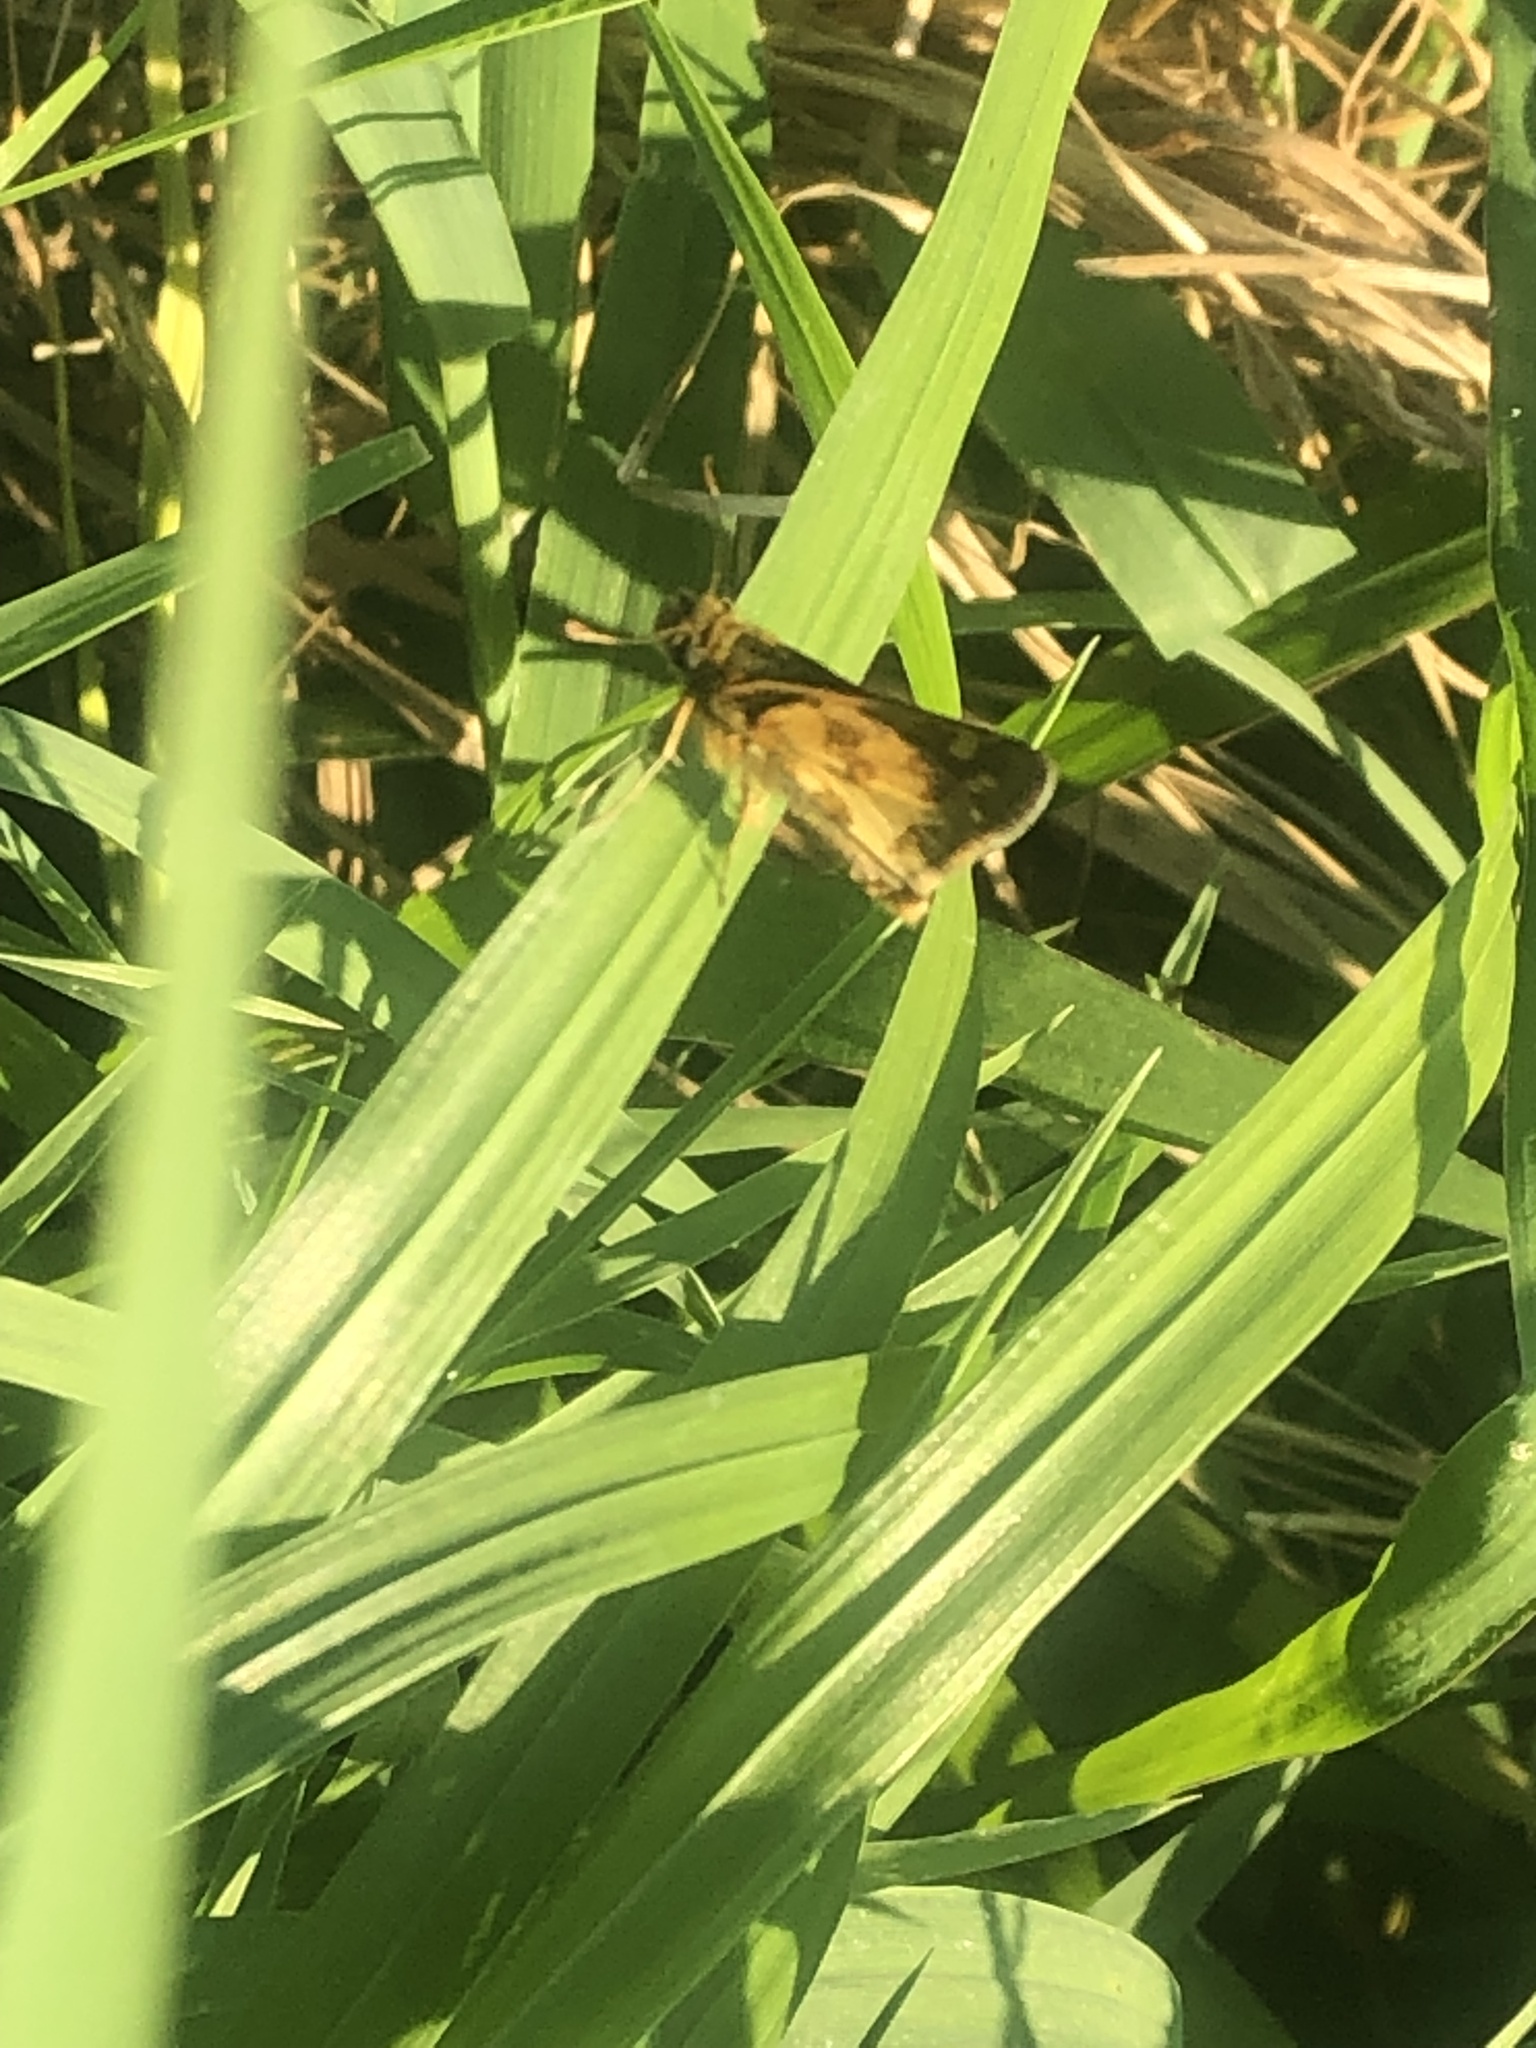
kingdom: Animalia
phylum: Arthropoda
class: Insecta
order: Lepidoptera
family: Hesperiidae
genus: Polites
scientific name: Polites coras
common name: Peck's skipper
